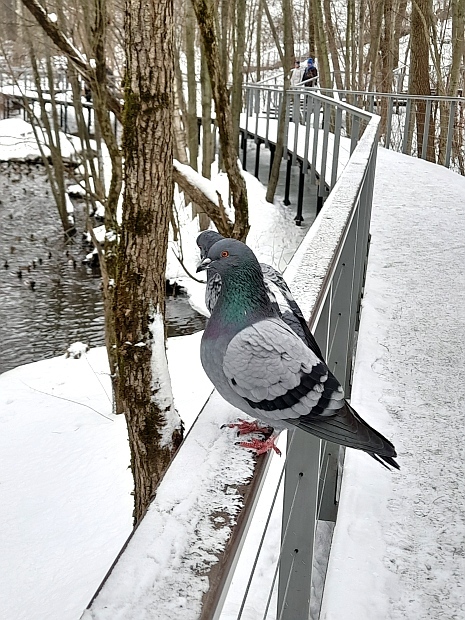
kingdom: Animalia
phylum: Chordata
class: Aves
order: Columbiformes
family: Columbidae
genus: Columba
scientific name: Columba livia
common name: Rock pigeon
